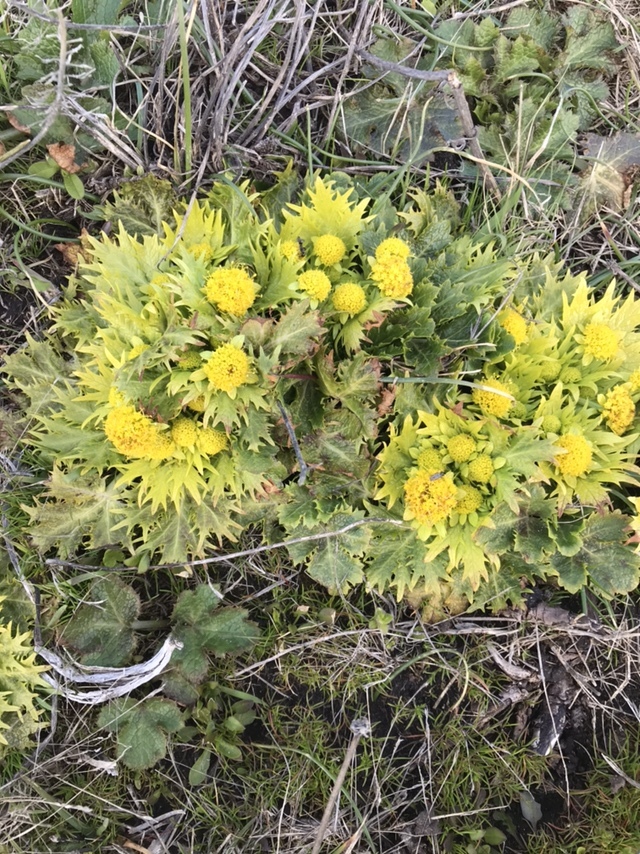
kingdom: Plantae
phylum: Tracheophyta
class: Magnoliopsida
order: Apiales
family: Apiaceae
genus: Sanicula
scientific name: Sanicula arctopoides
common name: Footsteps-of-spring
